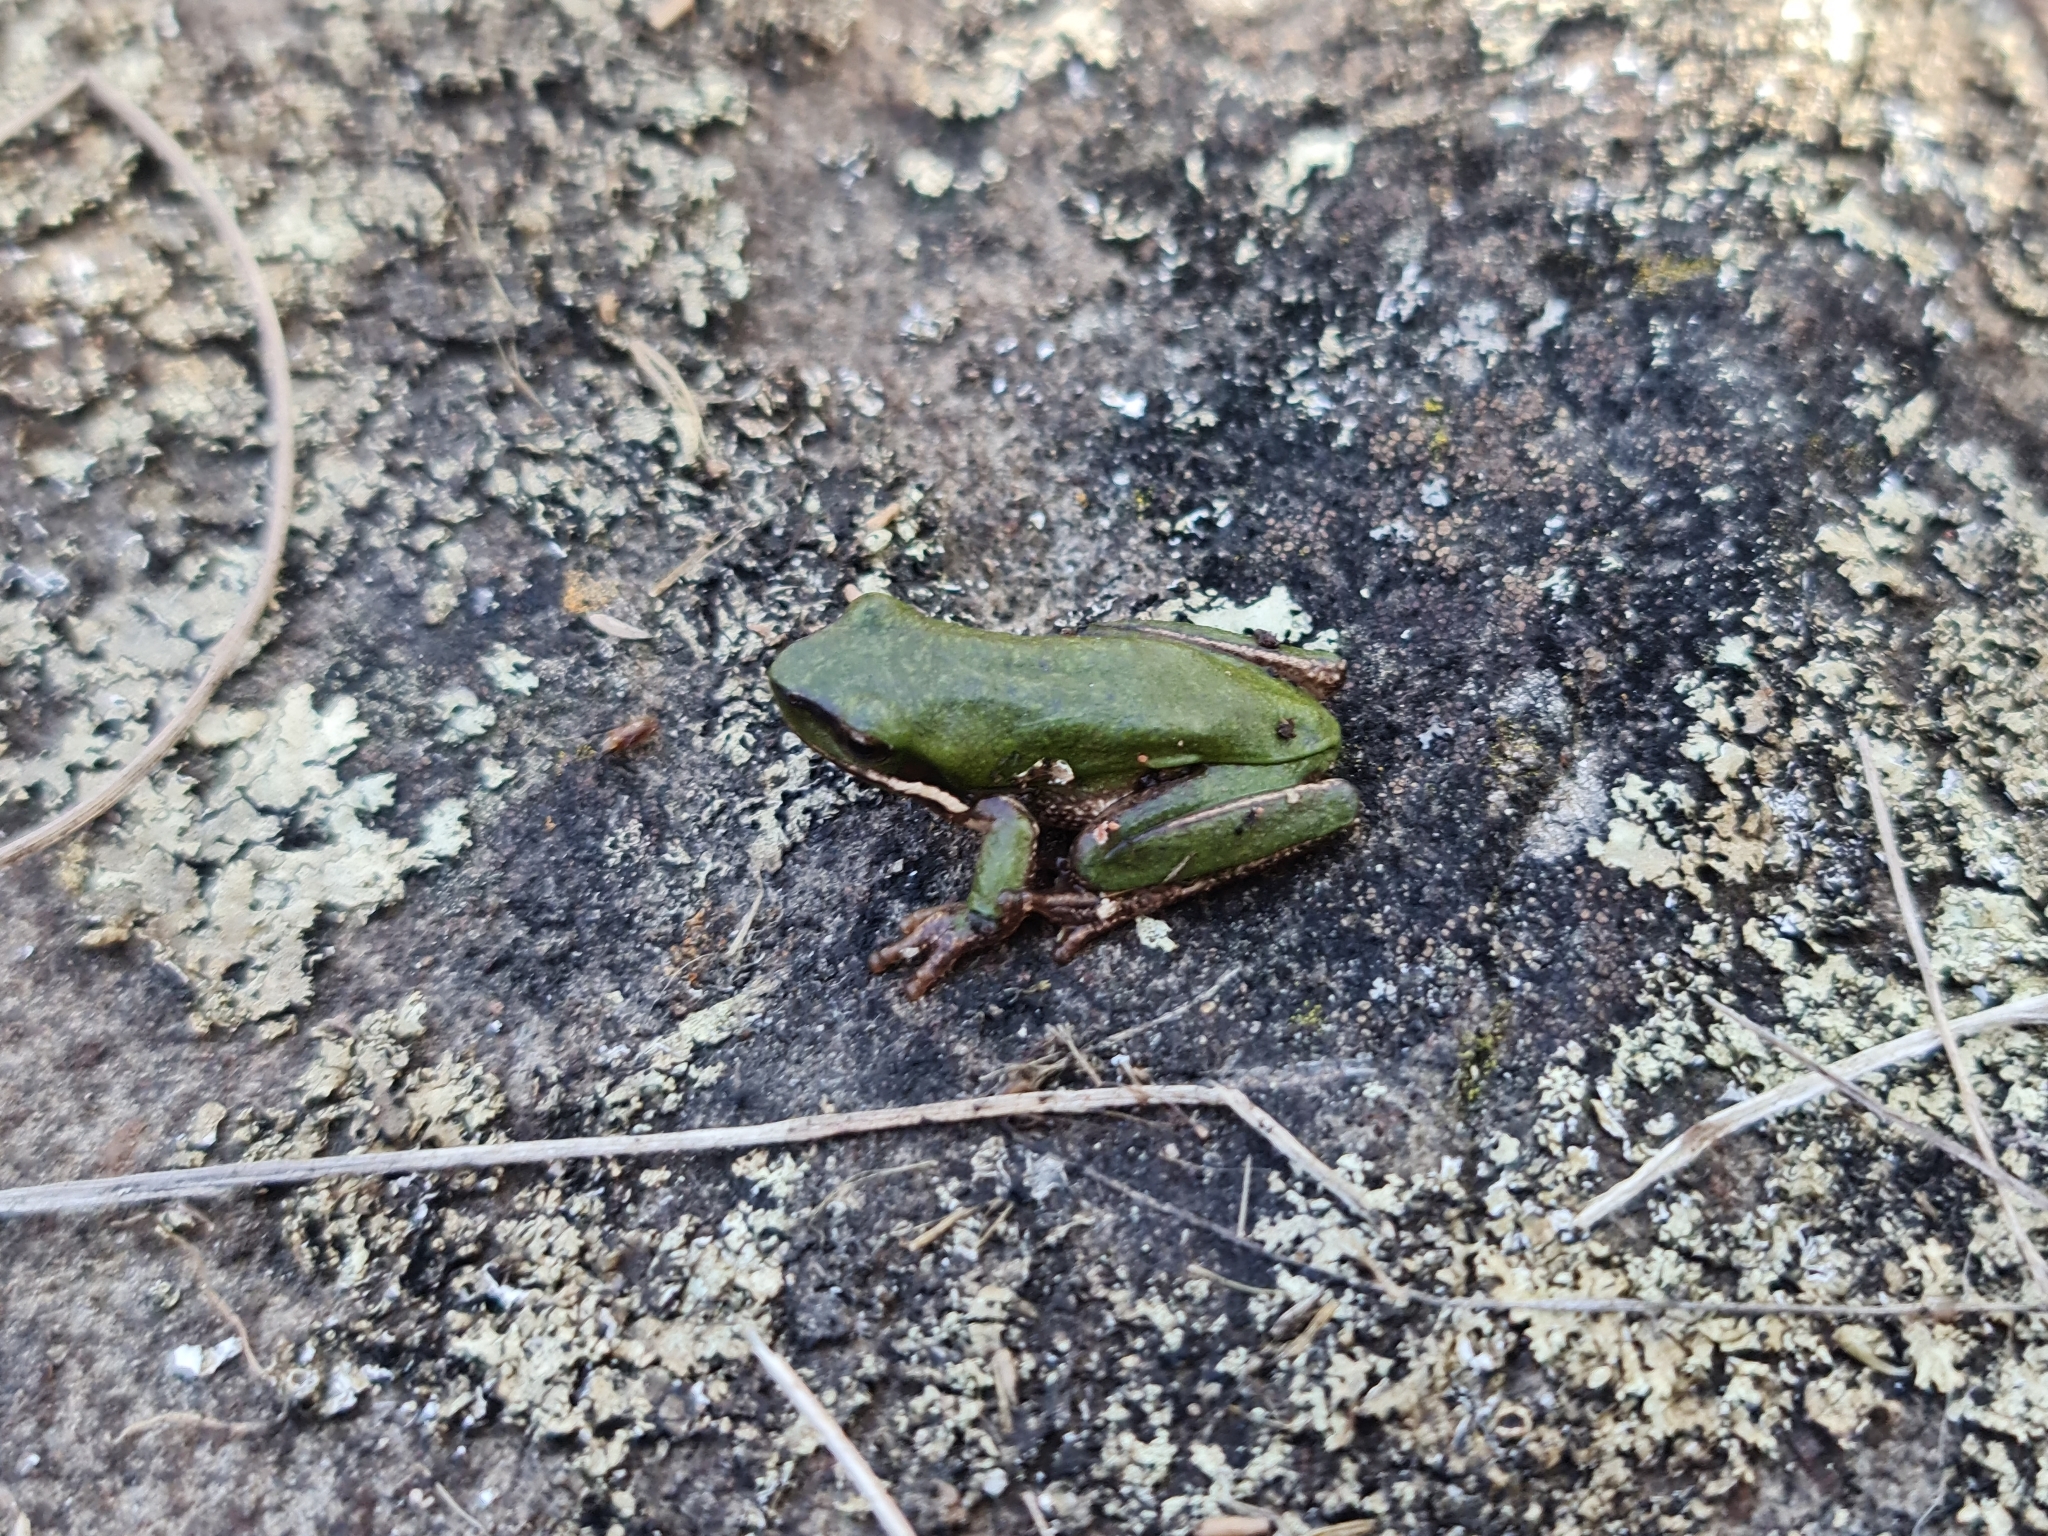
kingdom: Animalia
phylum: Chordata
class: Amphibia
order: Anura
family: Pelodryadidae
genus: Litoria
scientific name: Litoria fallax
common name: Eastern dwarf treefrog
